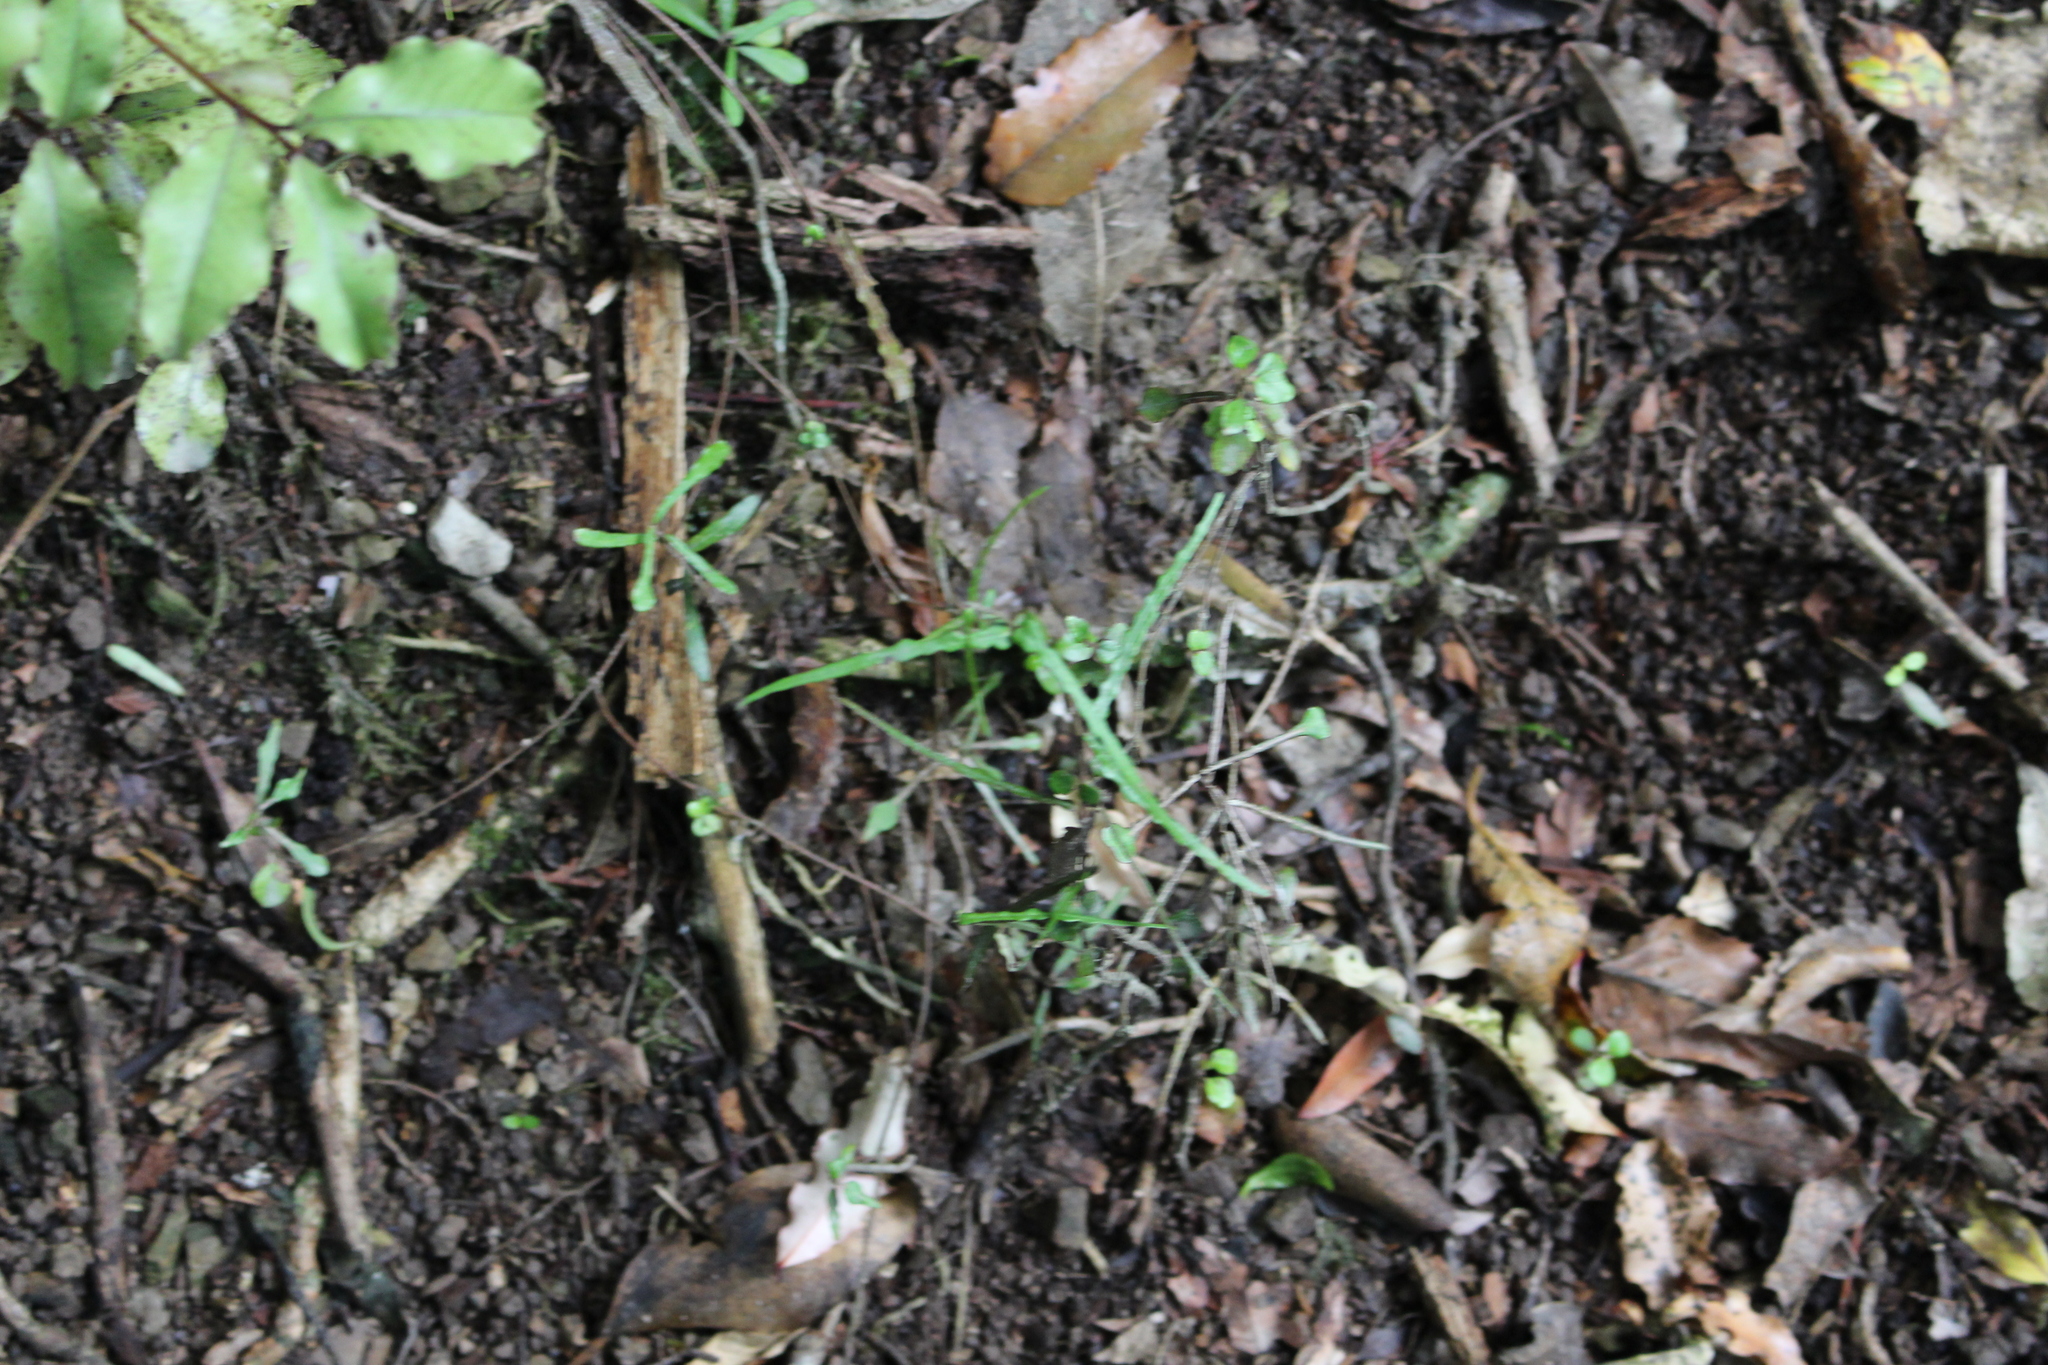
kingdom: Plantae
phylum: Tracheophyta
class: Magnoliopsida
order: Gentianales
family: Apocynaceae
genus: Parsonsia
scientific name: Parsonsia heterophylla
